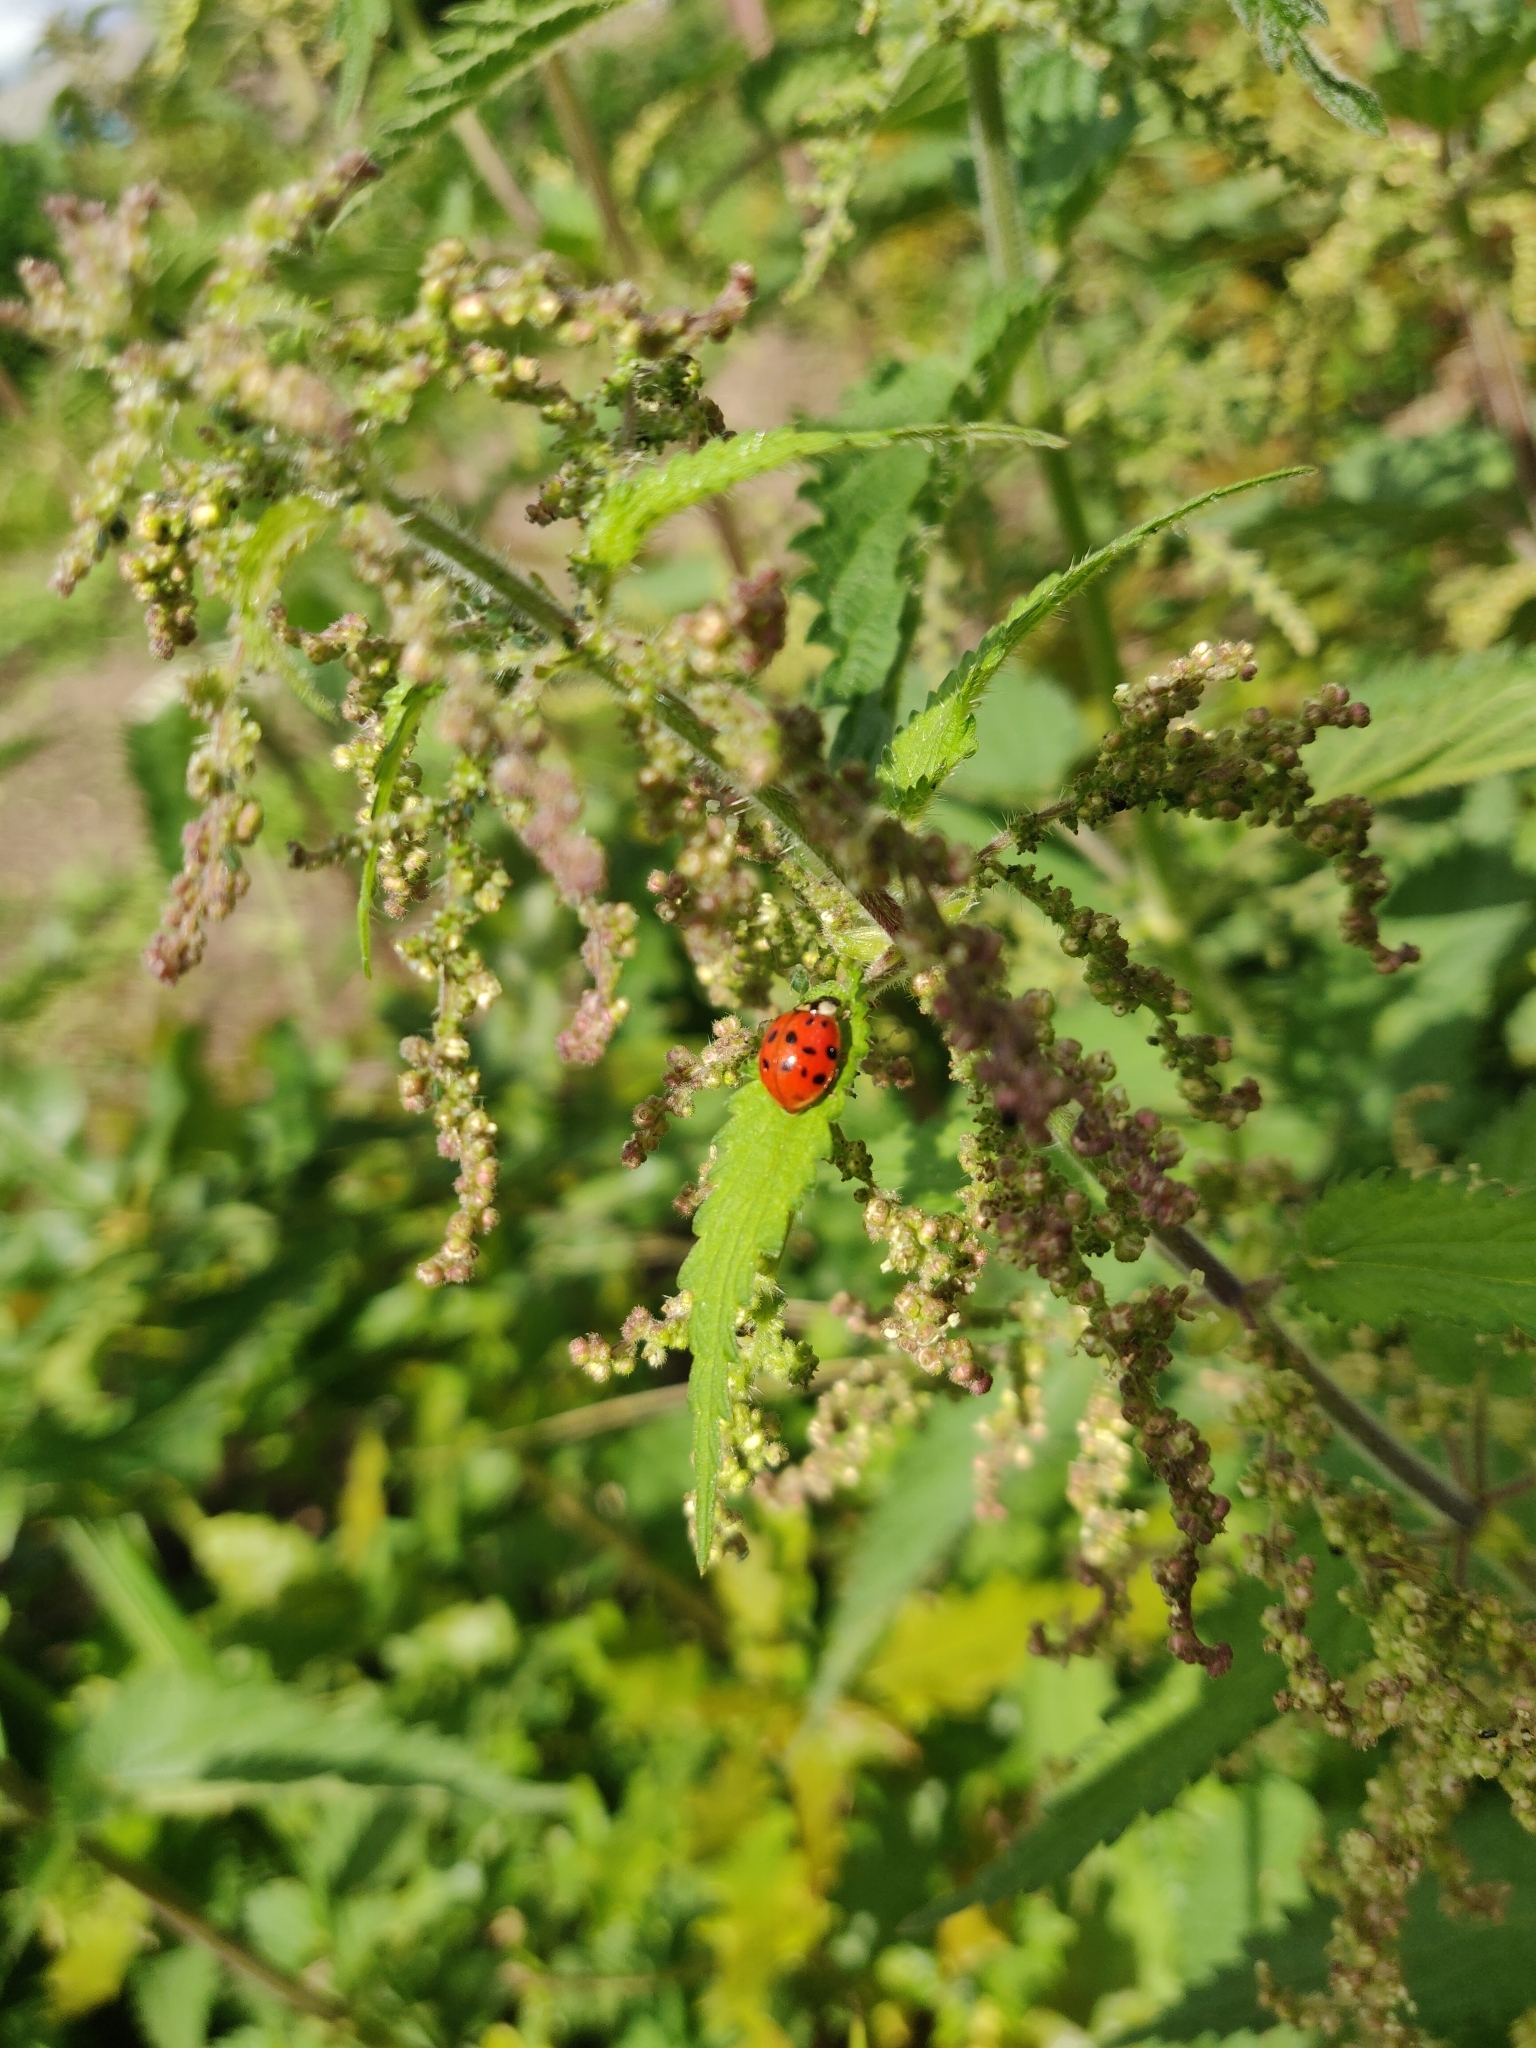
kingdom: Animalia
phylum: Arthropoda
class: Insecta
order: Coleoptera
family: Coccinellidae
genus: Harmonia
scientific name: Harmonia axyridis
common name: Harlequin ladybird
